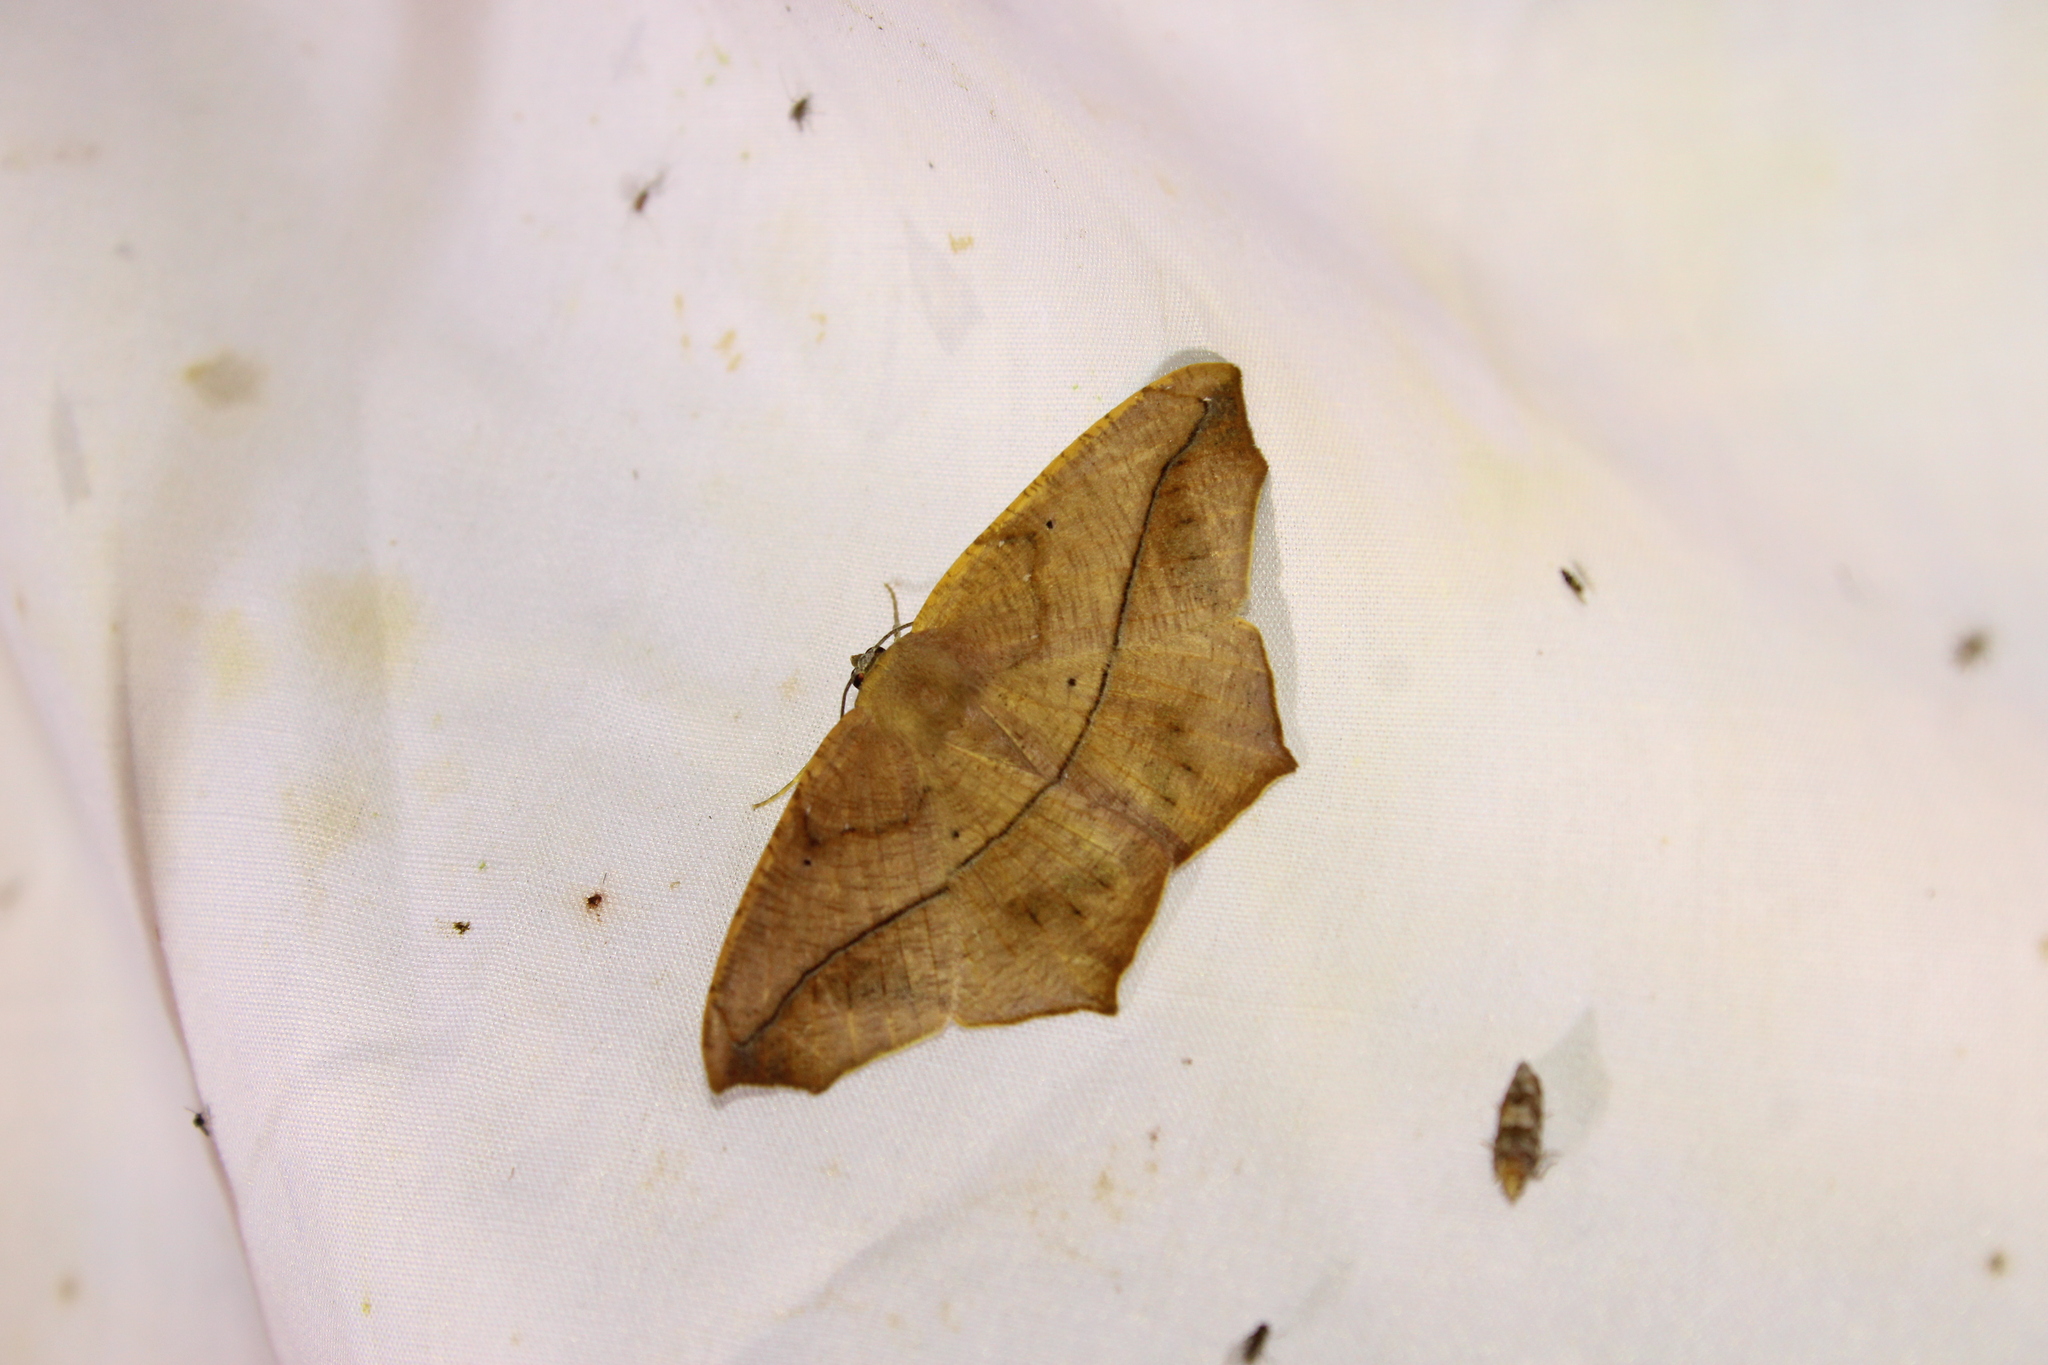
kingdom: Animalia
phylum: Arthropoda
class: Insecta
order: Lepidoptera
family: Geometridae
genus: Prochoerodes
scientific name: Prochoerodes lineola
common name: Large maple spanworm
